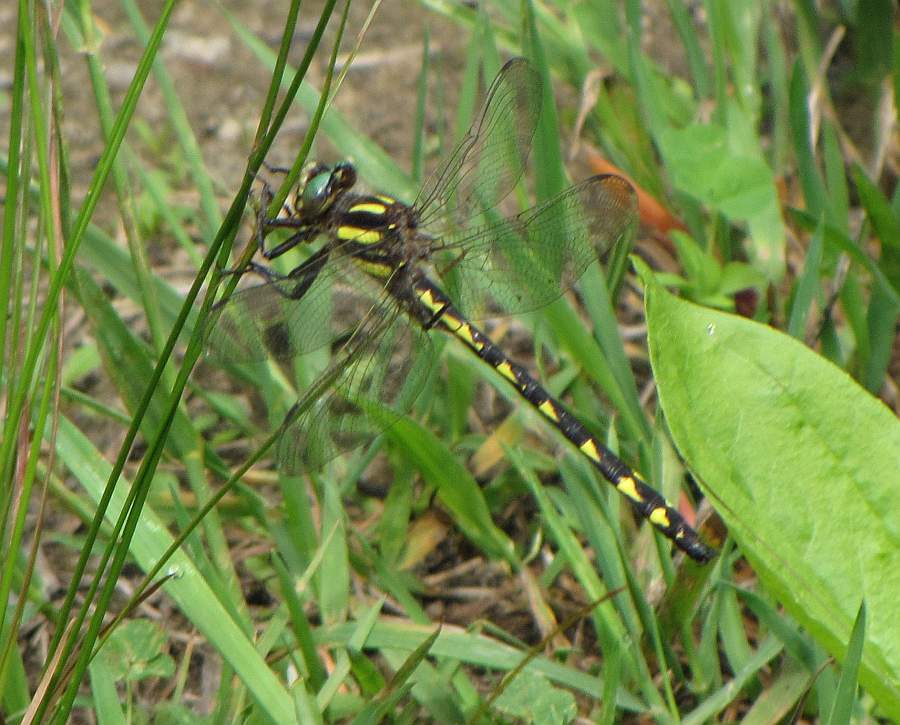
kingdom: Animalia
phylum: Arthropoda
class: Insecta
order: Odonata
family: Cordulegastridae
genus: Cordulegaster
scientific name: Cordulegaster diastatops
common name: Delta-spotted spiketail
